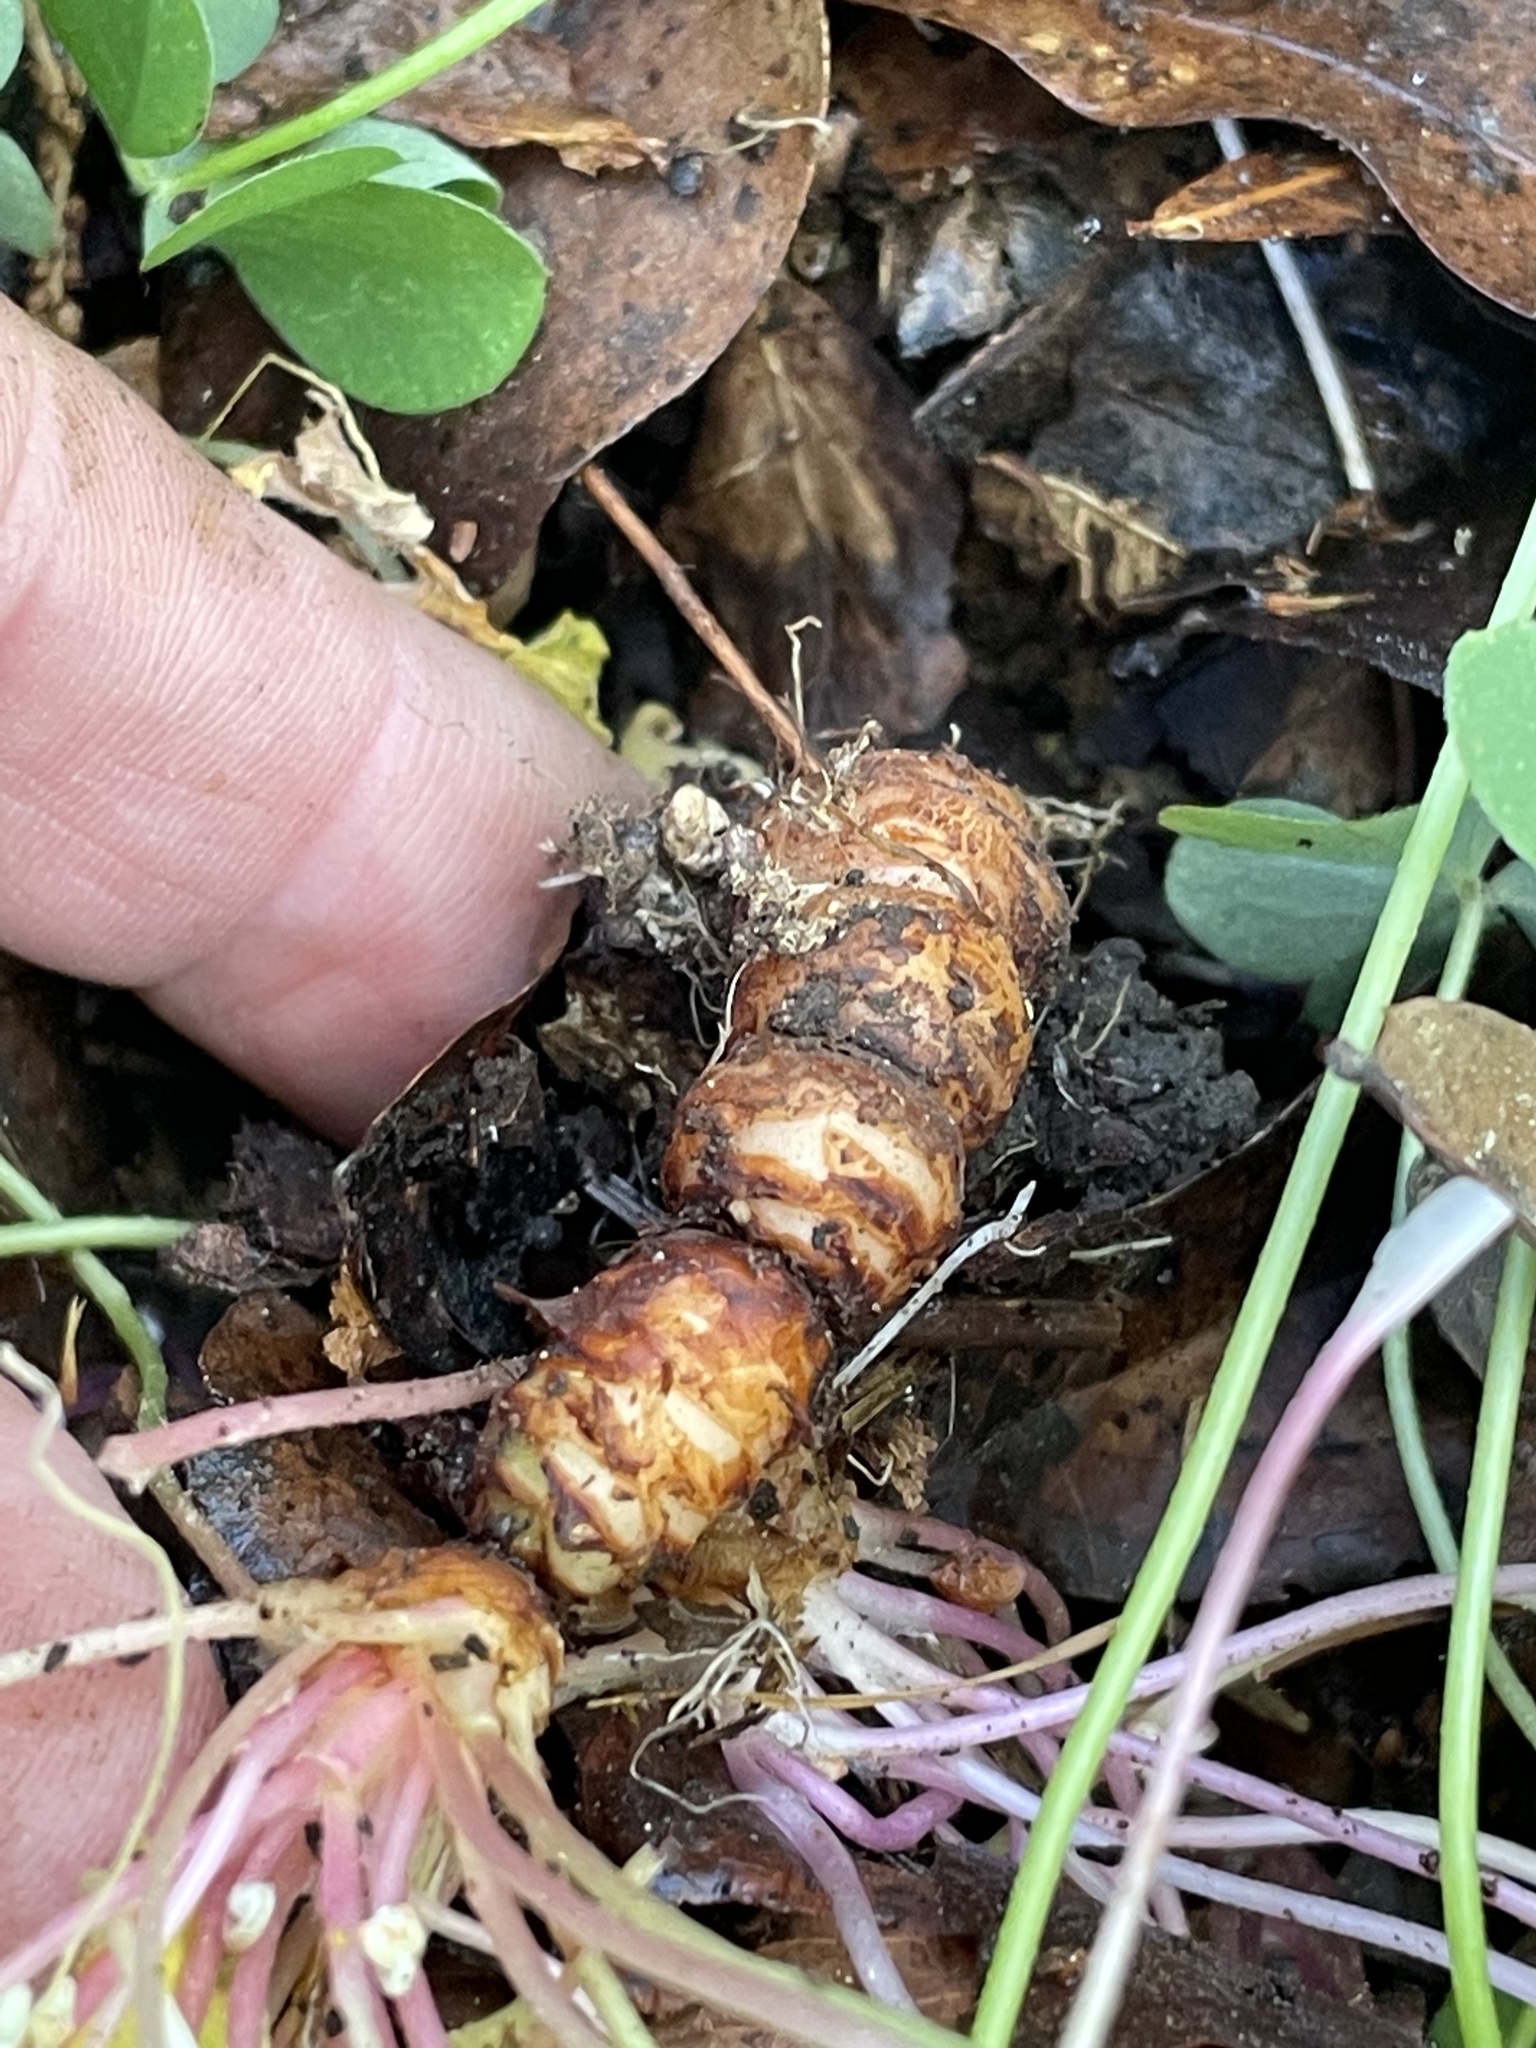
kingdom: Plantae
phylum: Tracheophyta
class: Magnoliopsida
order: Oxalidales
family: Oxalidaceae
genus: Oxalis
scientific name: Oxalis articulata
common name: Pink-sorrel
